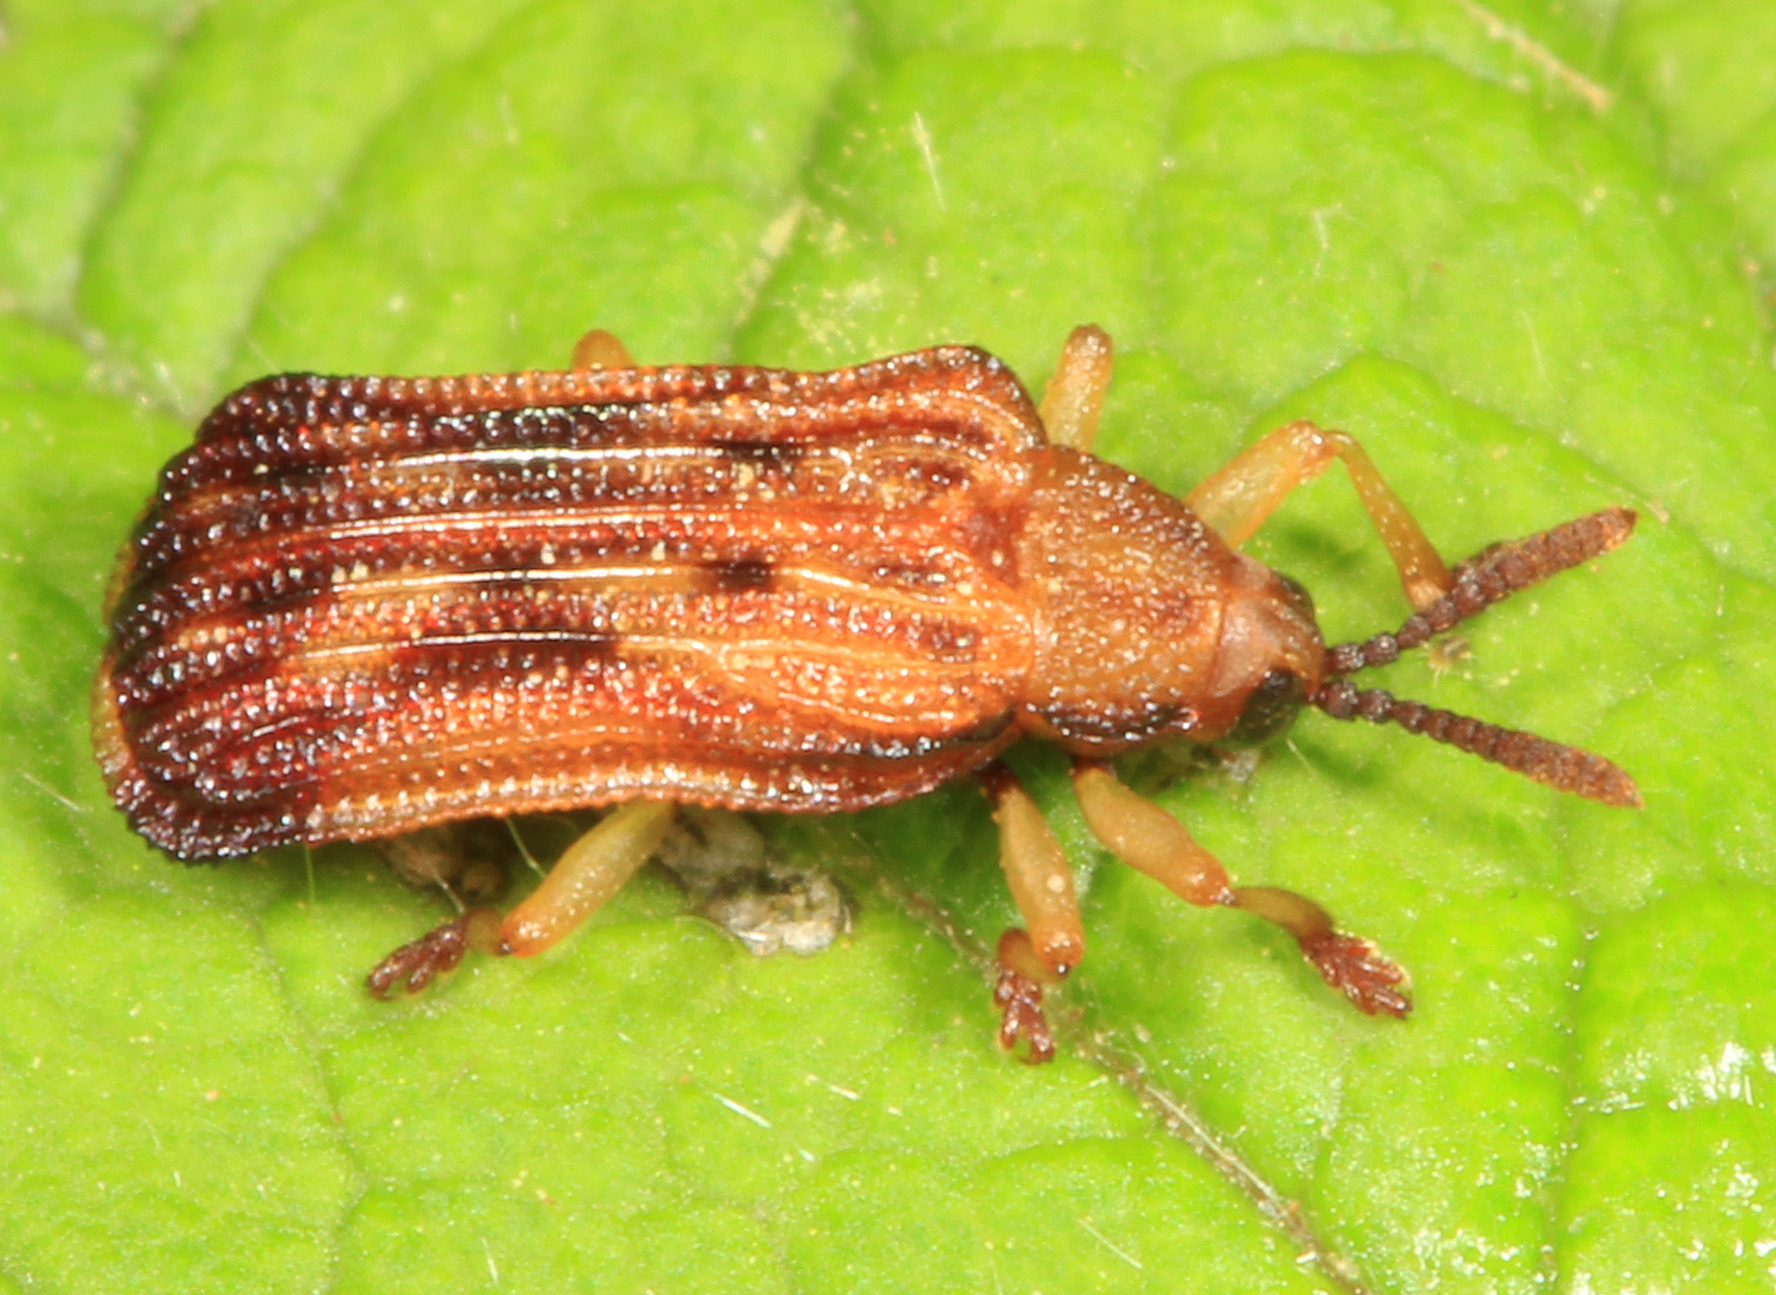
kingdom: Animalia
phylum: Arthropoda
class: Insecta
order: Coleoptera
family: Chrysomelidae
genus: Baliosus
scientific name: Baliosus nervosus
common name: Basswood leaf miner
